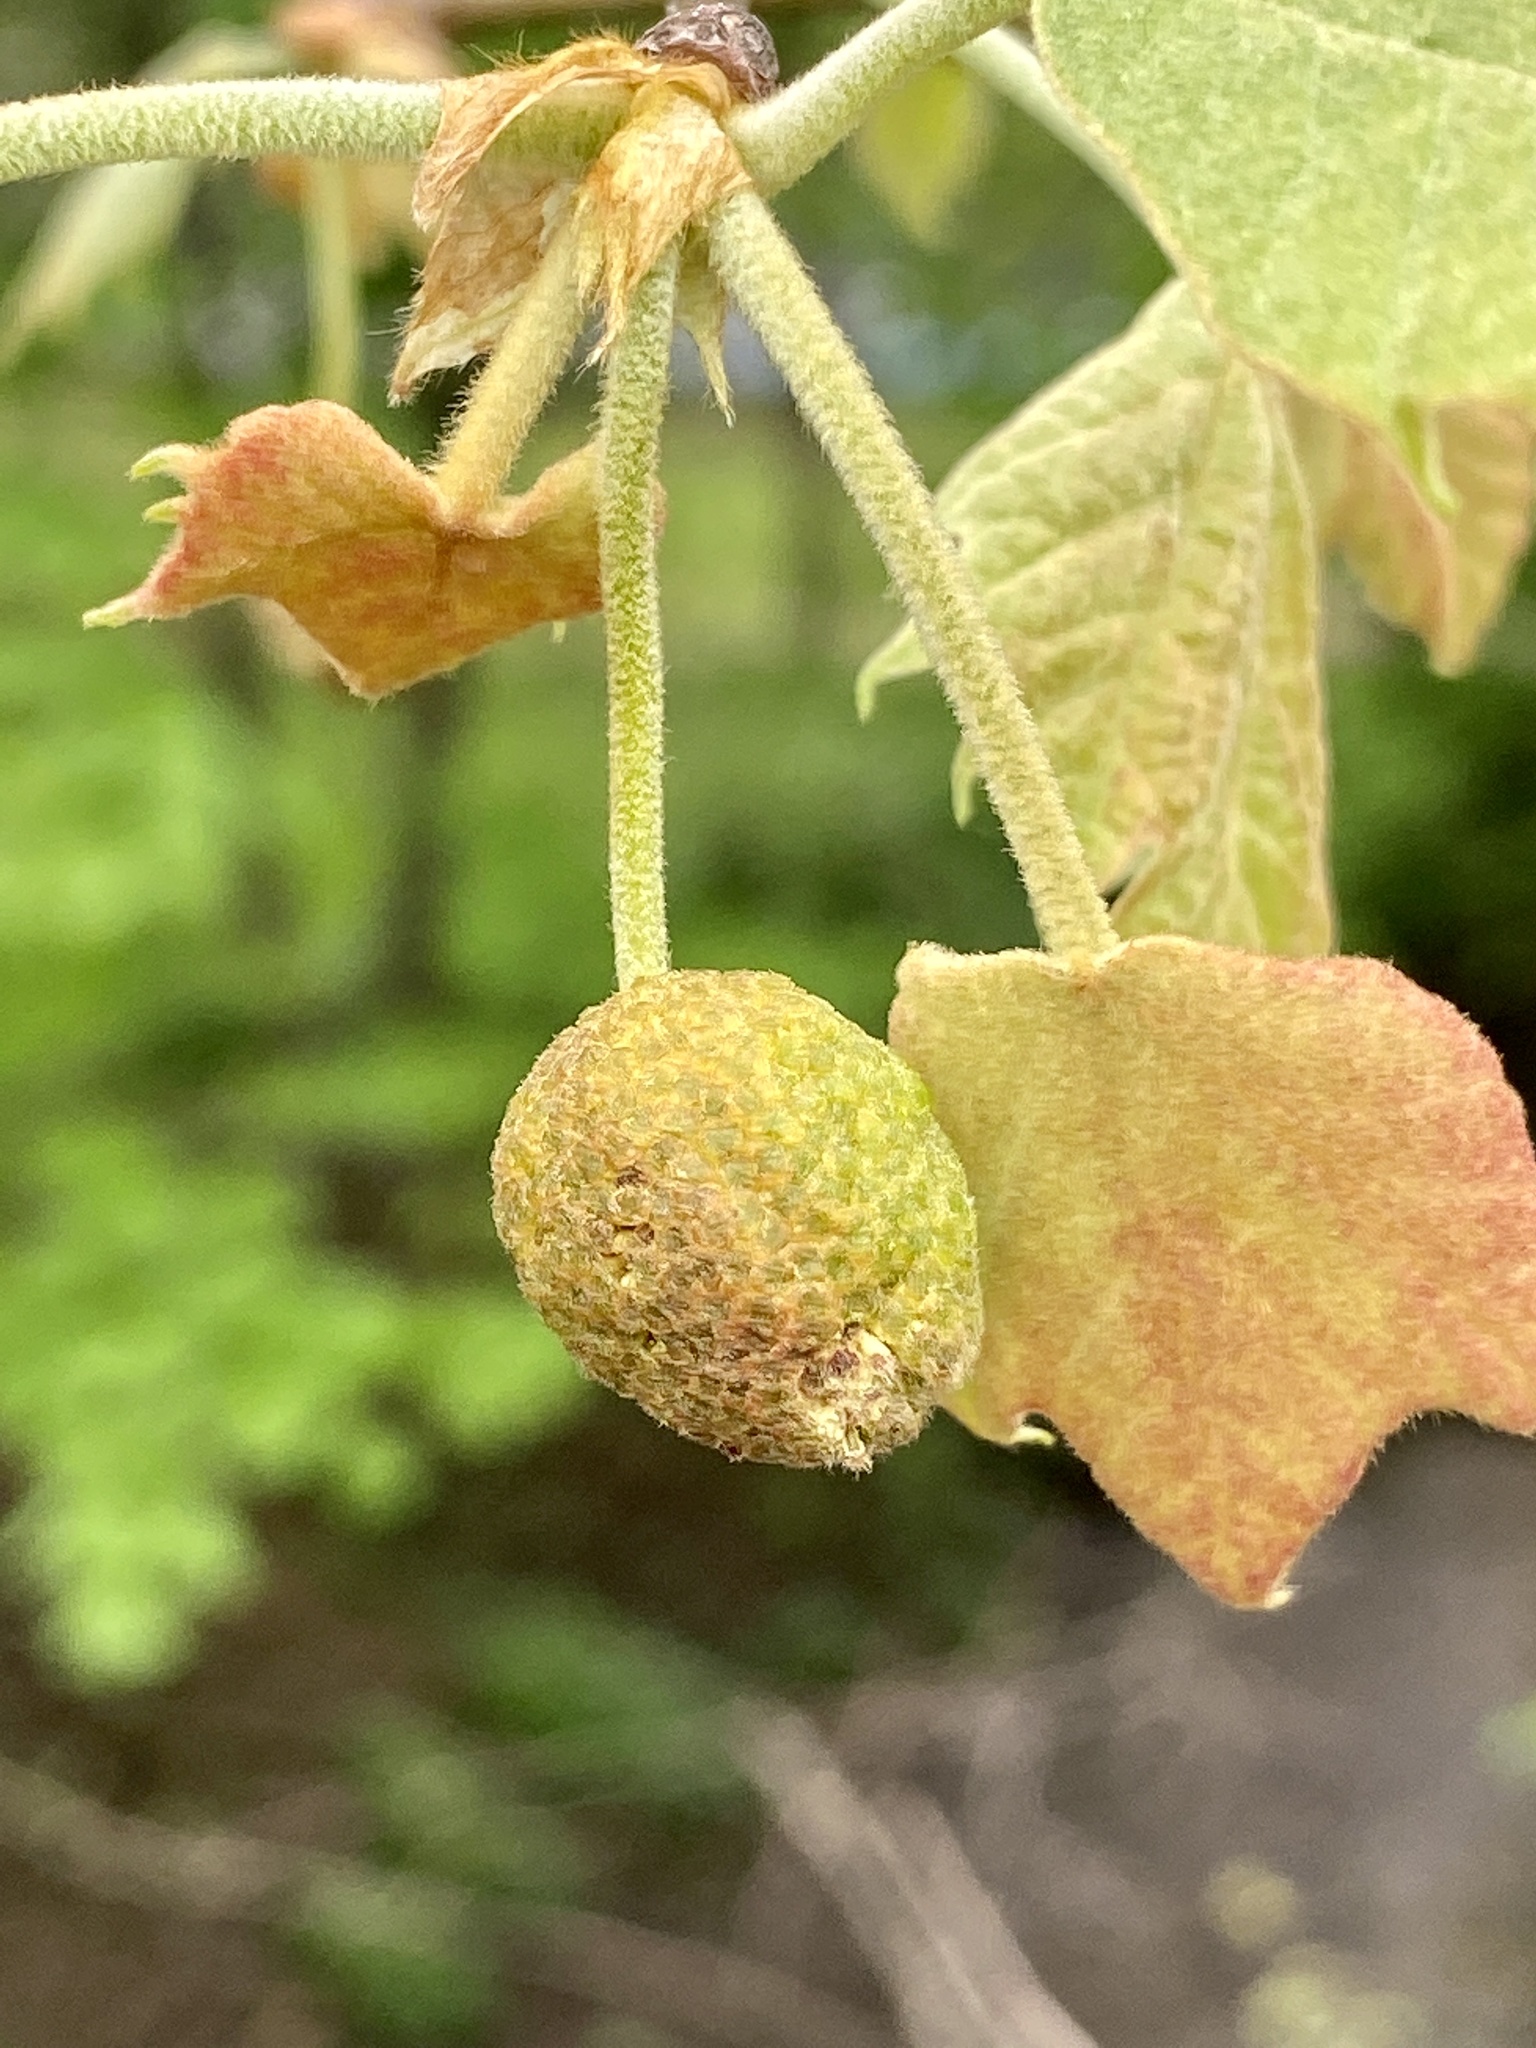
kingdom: Plantae
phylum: Tracheophyta
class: Magnoliopsida
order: Proteales
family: Platanaceae
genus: Platanus
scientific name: Platanus occidentalis
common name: American sycamore
